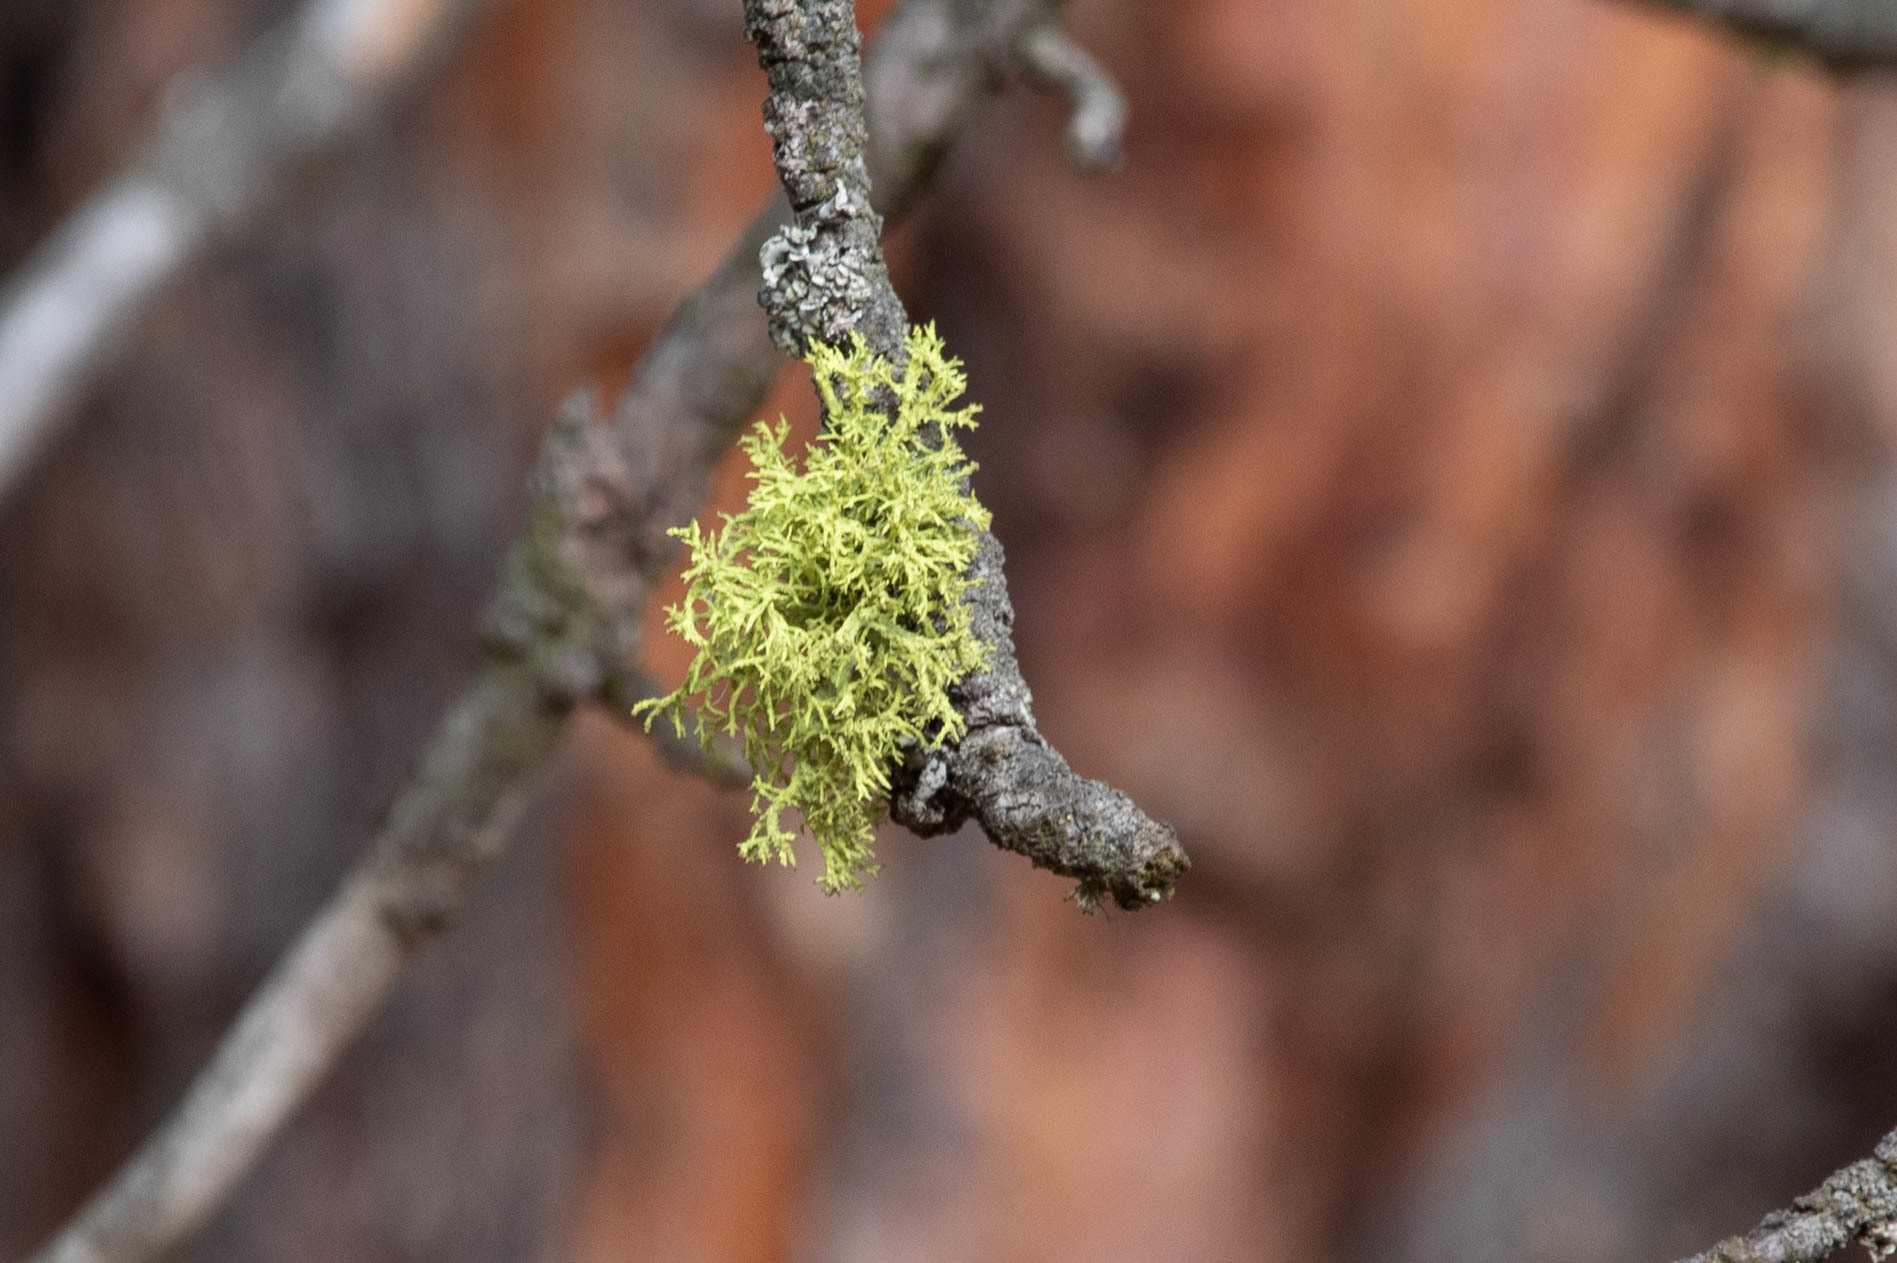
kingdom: Fungi
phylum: Ascomycota
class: Lecanoromycetes
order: Lecanorales
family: Parmeliaceae
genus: Letharia
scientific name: Letharia vulpina
